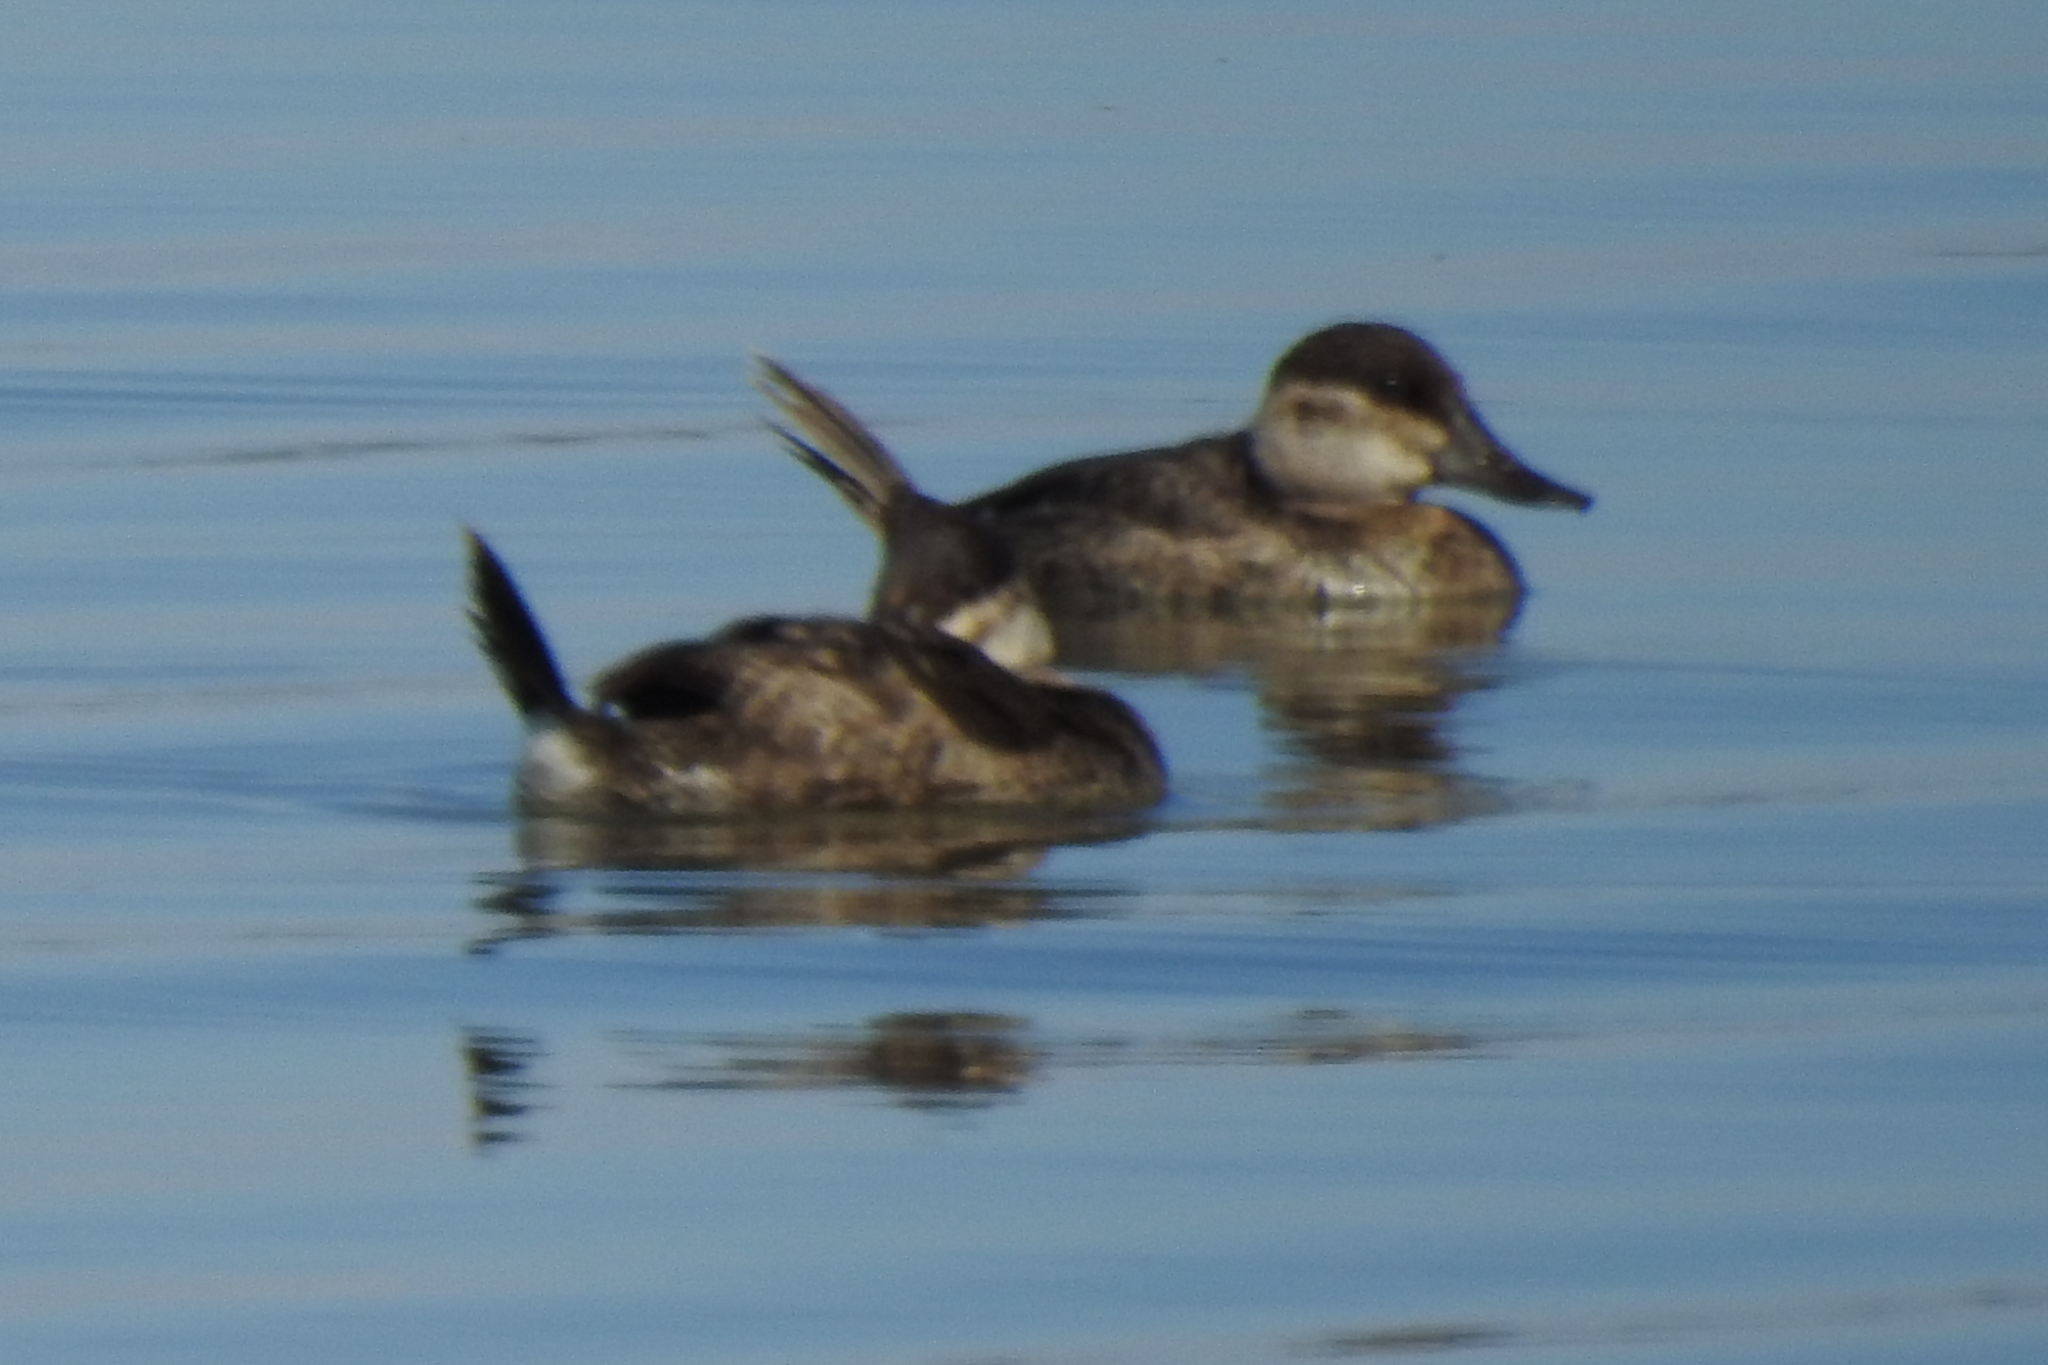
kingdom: Animalia
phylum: Chordata
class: Aves
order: Anseriformes
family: Anatidae
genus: Oxyura
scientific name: Oxyura jamaicensis
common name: Ruddy duck
